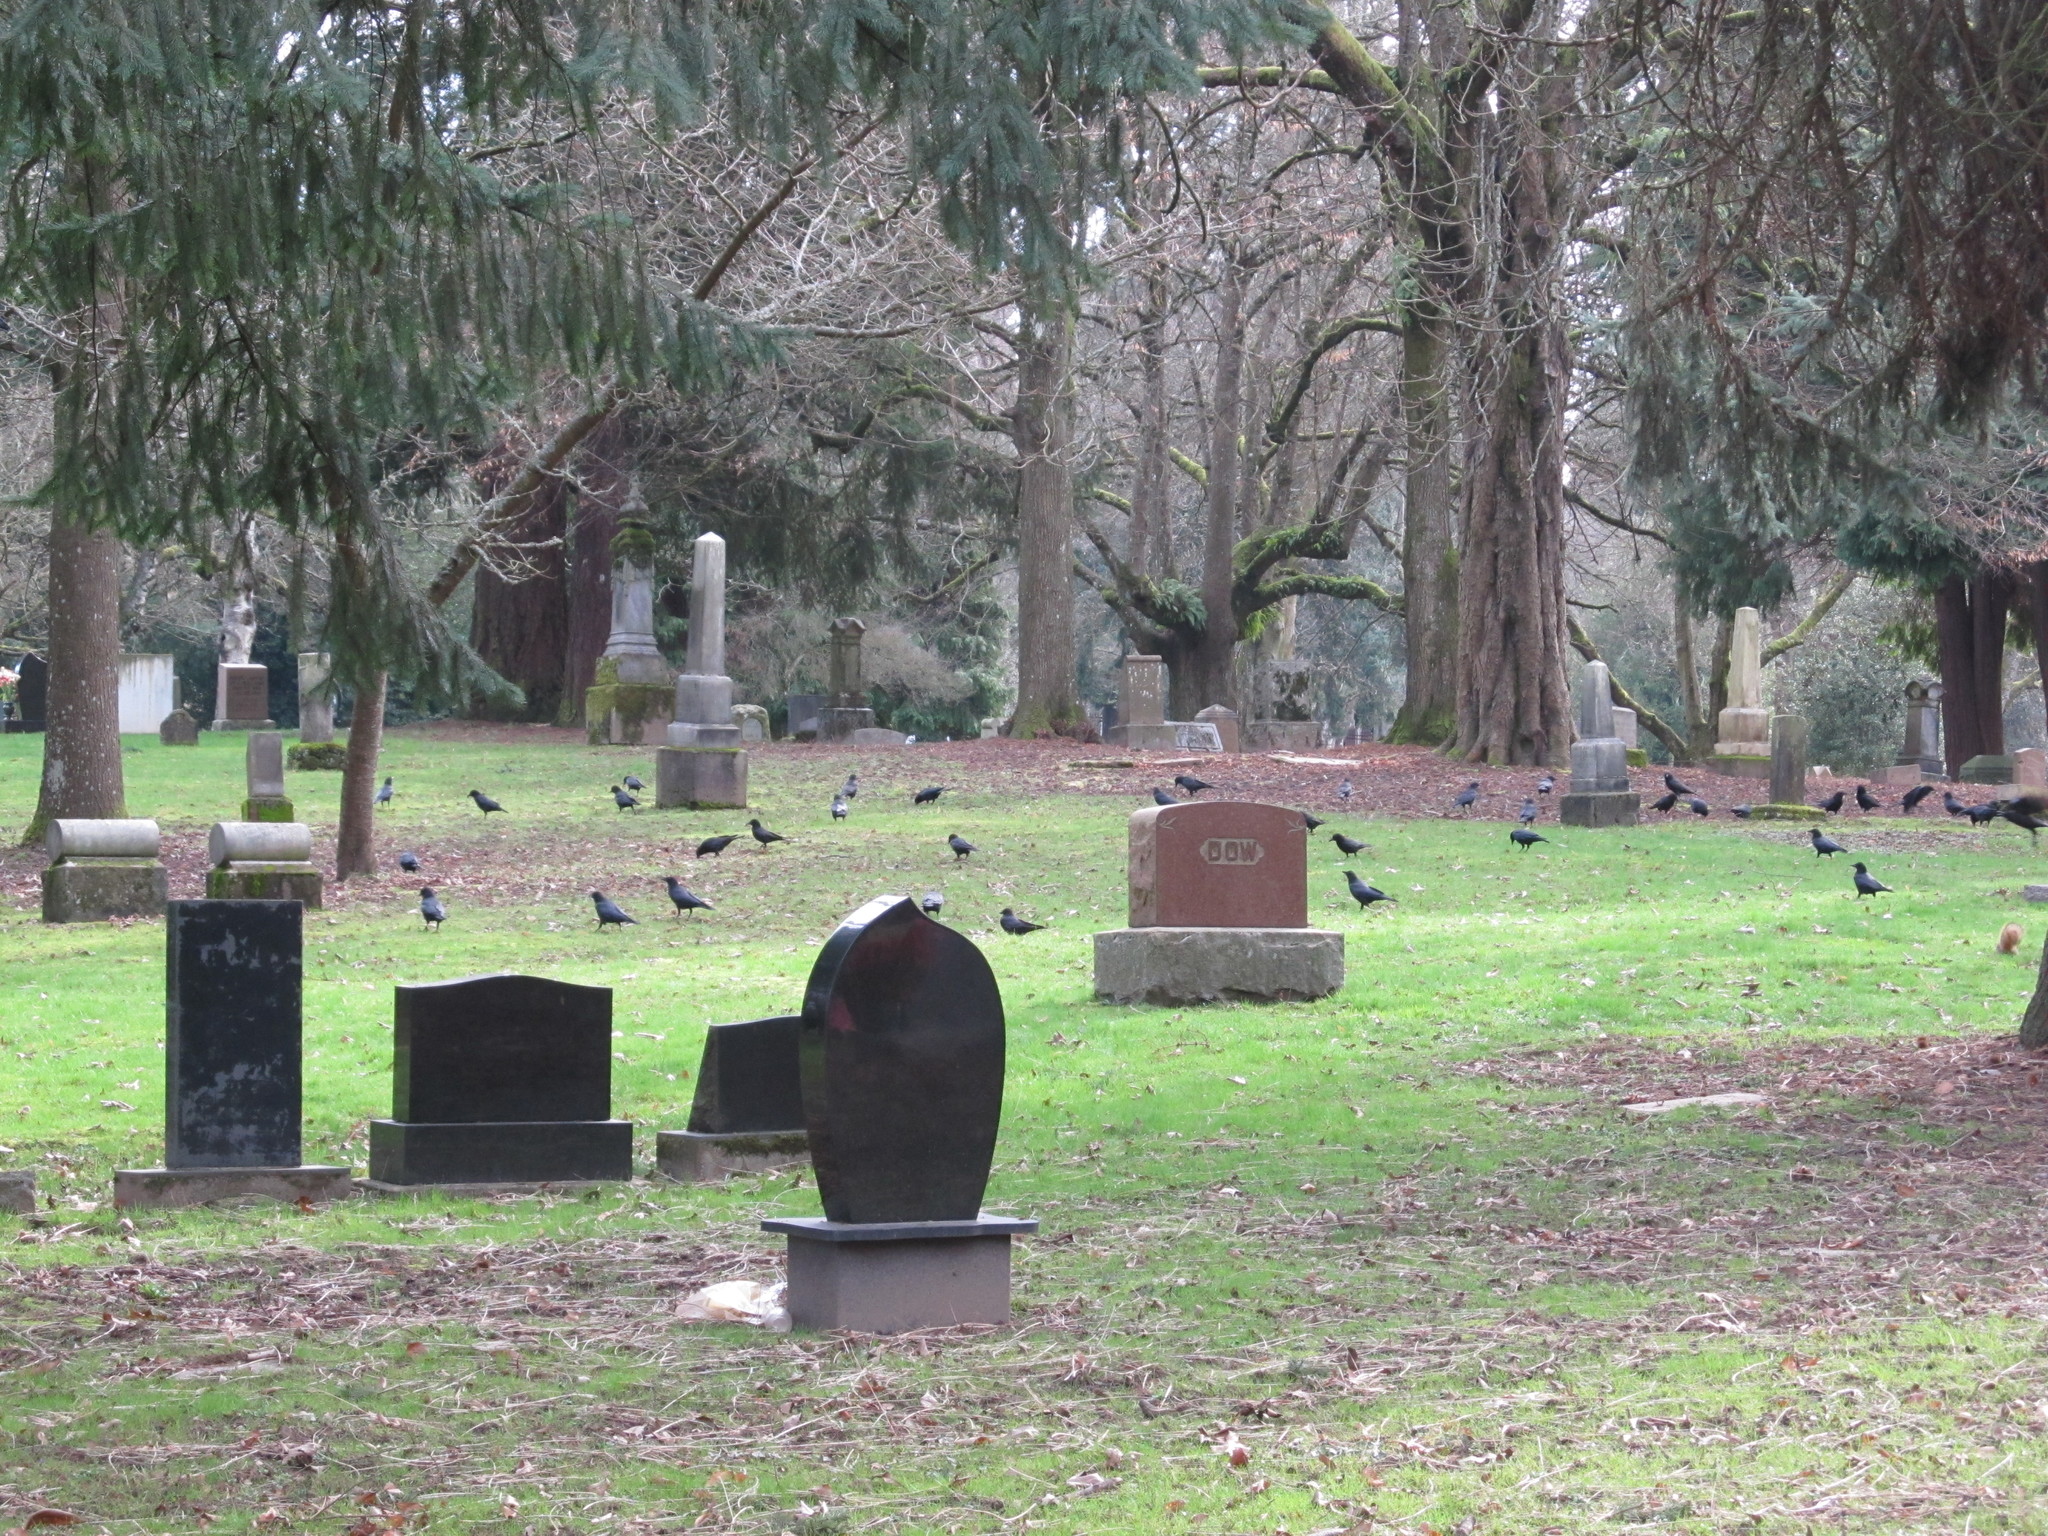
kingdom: Animalia
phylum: Chordata
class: Aves
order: Passeriformes
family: Corvidae
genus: Corvus
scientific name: Corvus brachyrhynchos
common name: American crow
